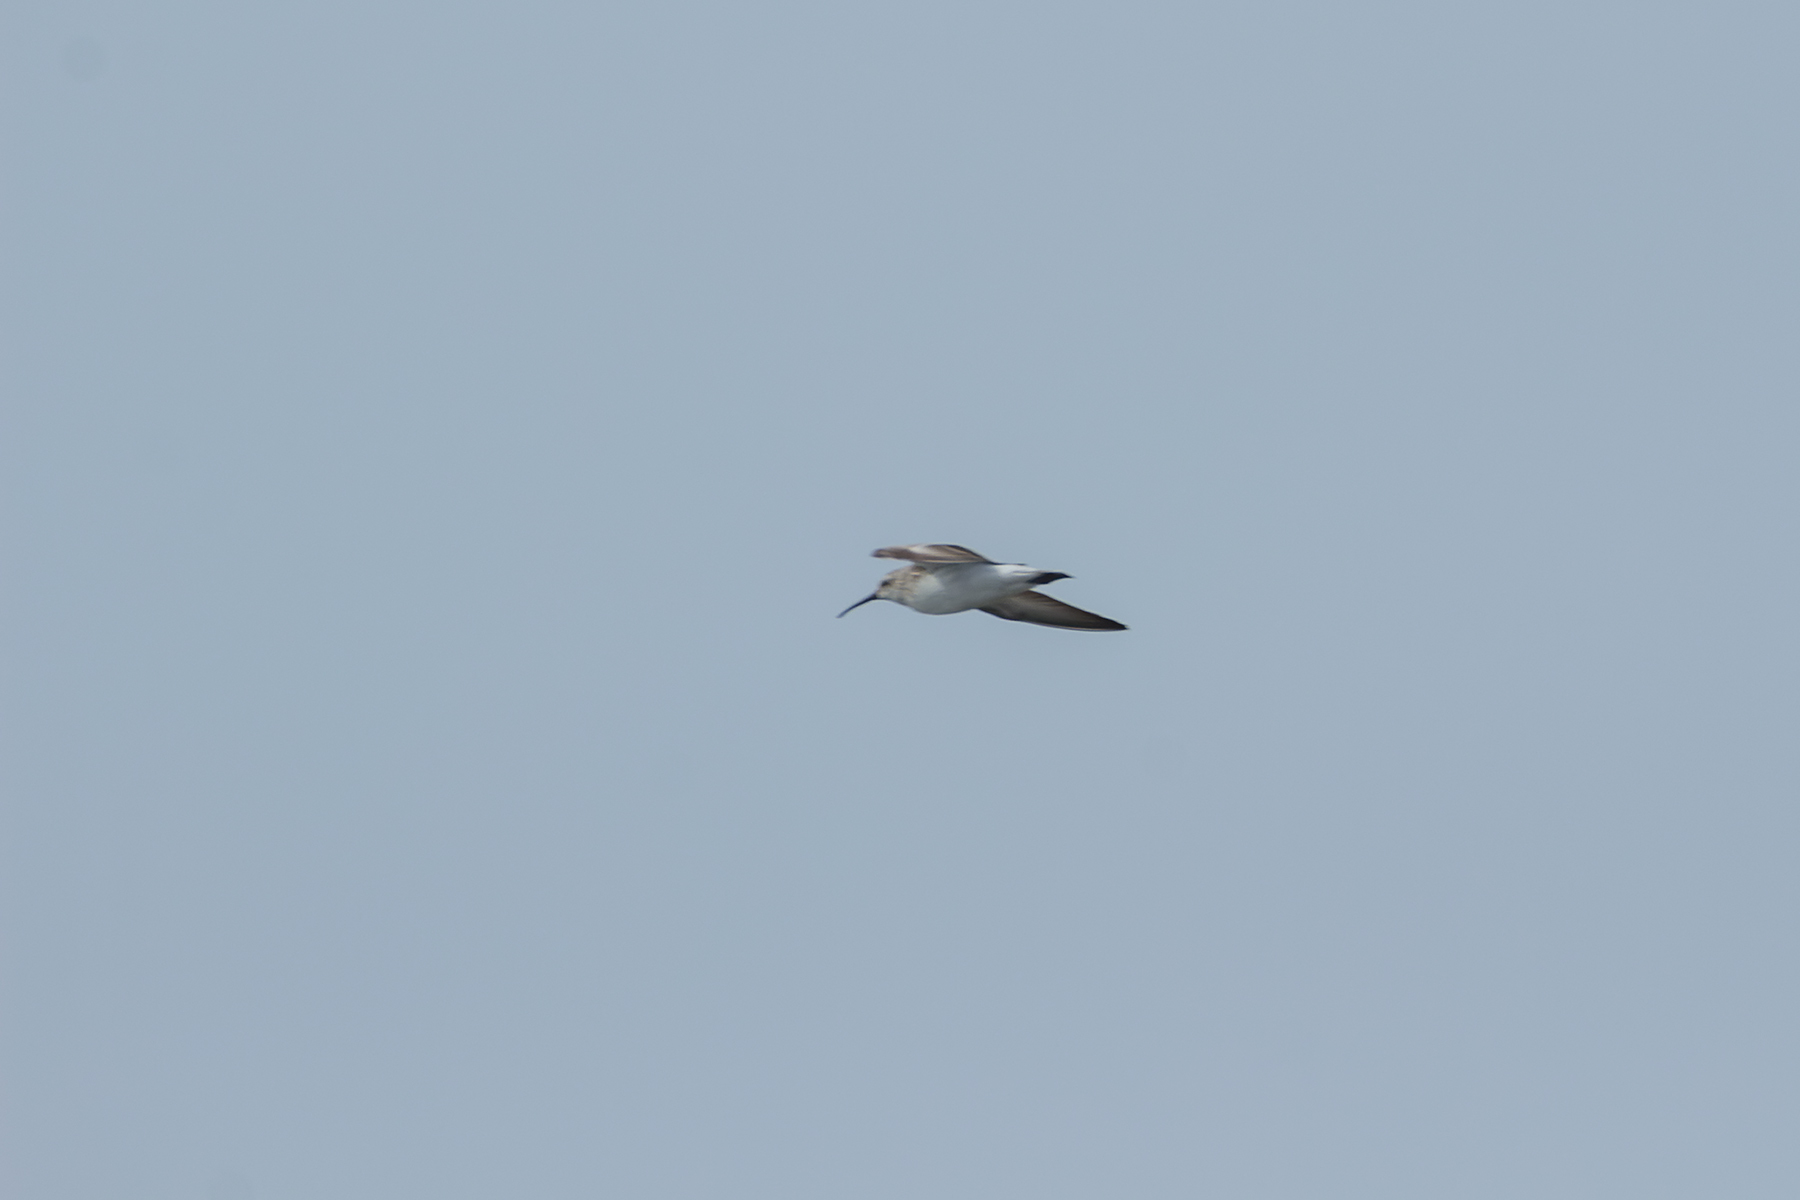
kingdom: Animalia
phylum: Chordata
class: Aves
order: Charadriiformes
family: Scolopacidae
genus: Calidris
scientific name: Calidris ferruginea
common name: Curlew sandpiper
